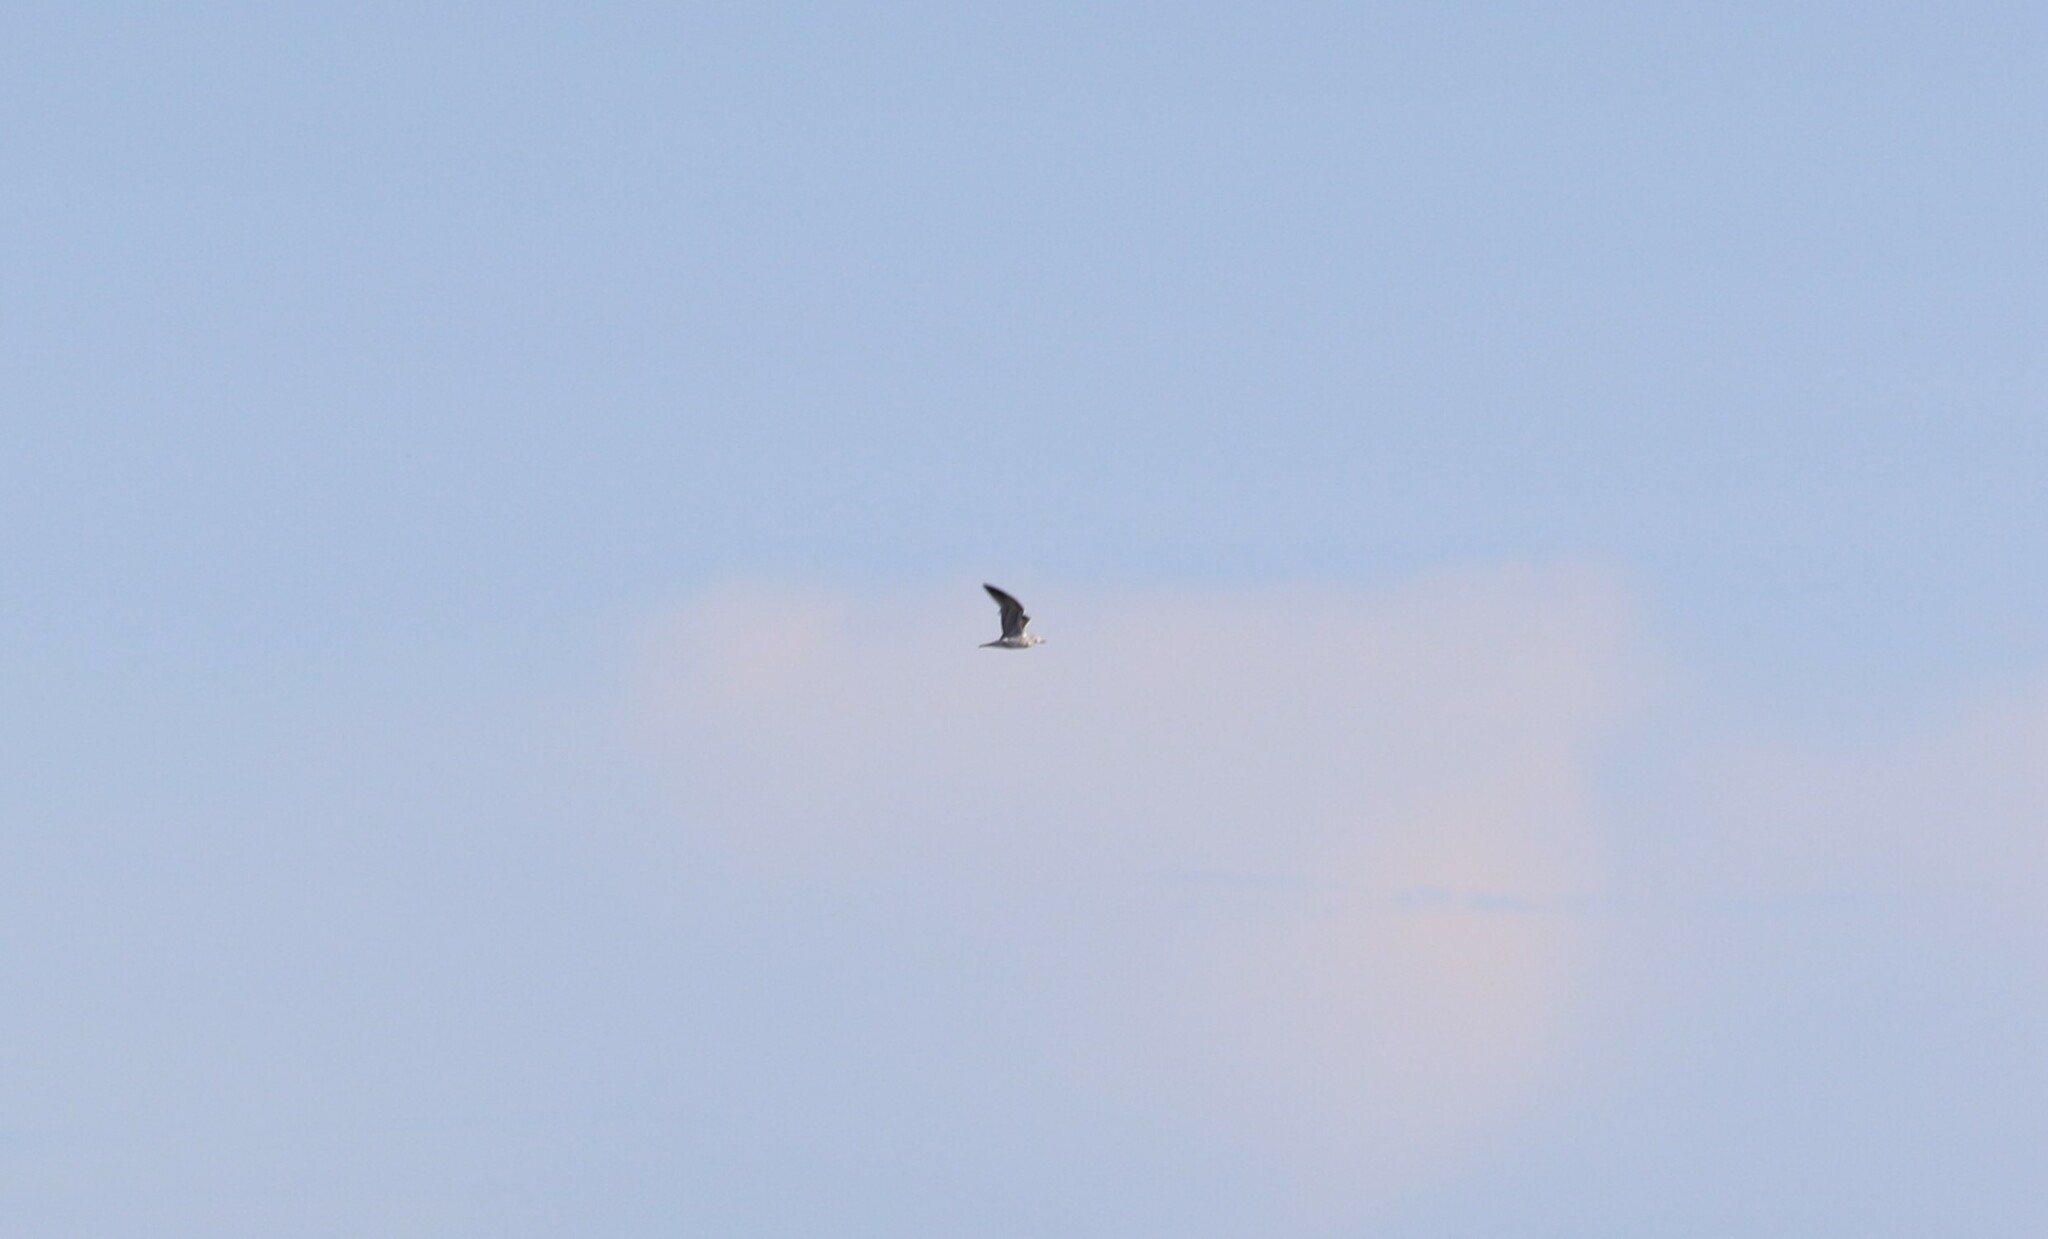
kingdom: Animalia
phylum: Chordata
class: Aves
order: Charadriiformes
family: Laridae
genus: Larus
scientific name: Larus canus
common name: Mew gull
